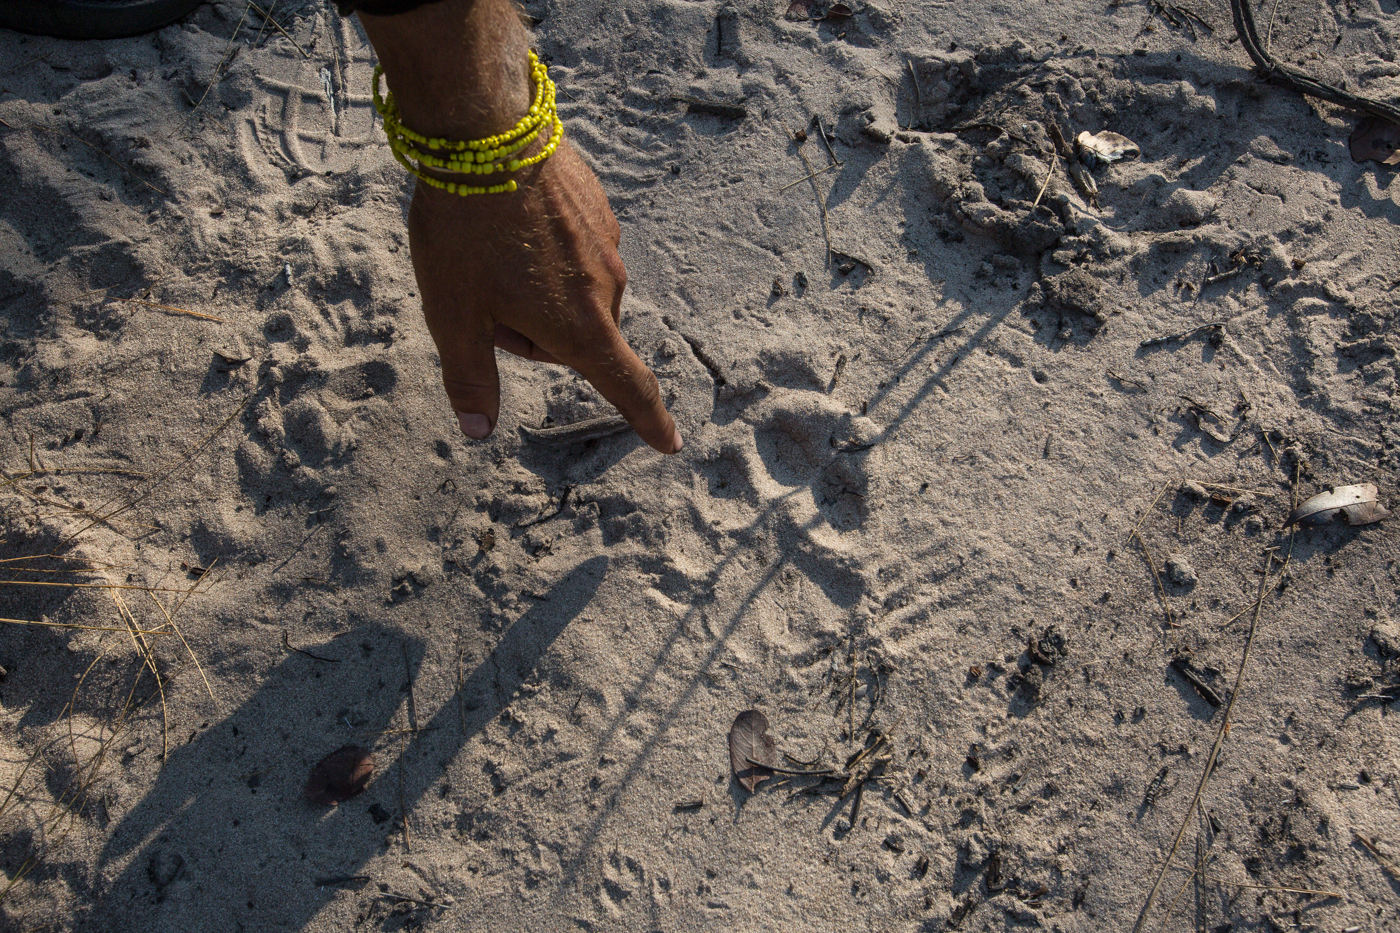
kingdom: Animalia
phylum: Chordata
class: Mammalia
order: Carnivora
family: Felidae
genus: Panthera
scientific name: Panthera leo
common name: Lion
